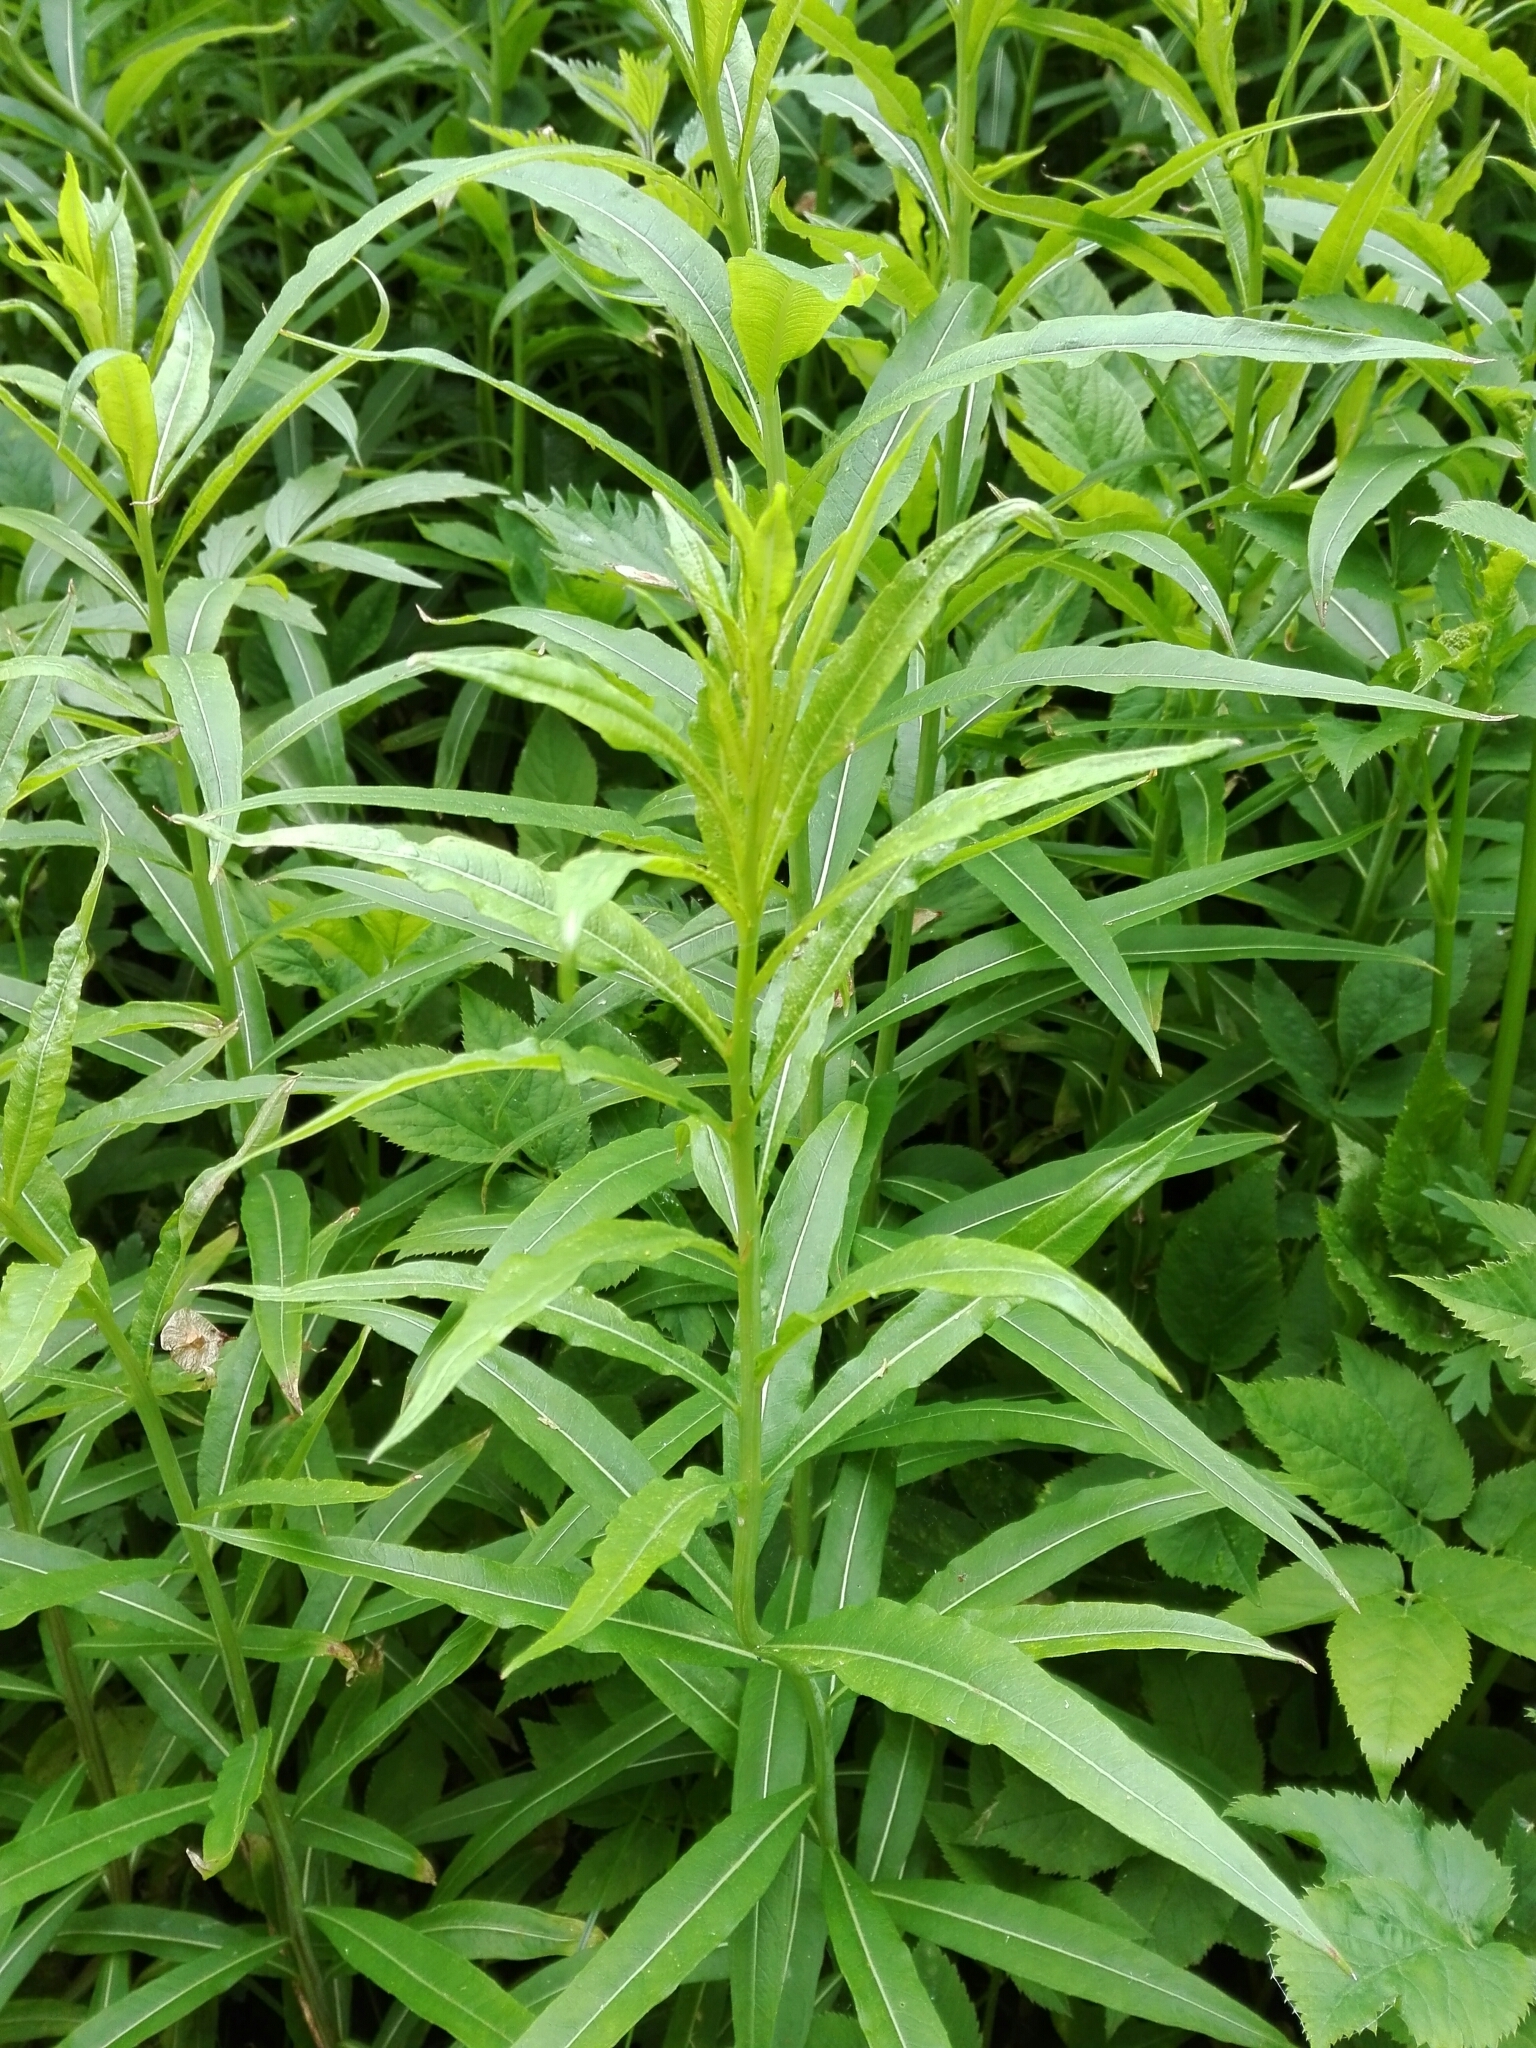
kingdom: Plantae
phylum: Tracheophyta
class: Magnoliopsida
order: Myrtales
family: Onagraceae
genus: Chamaenerion
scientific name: Chamaenerion angustifolium
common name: Fireweed
